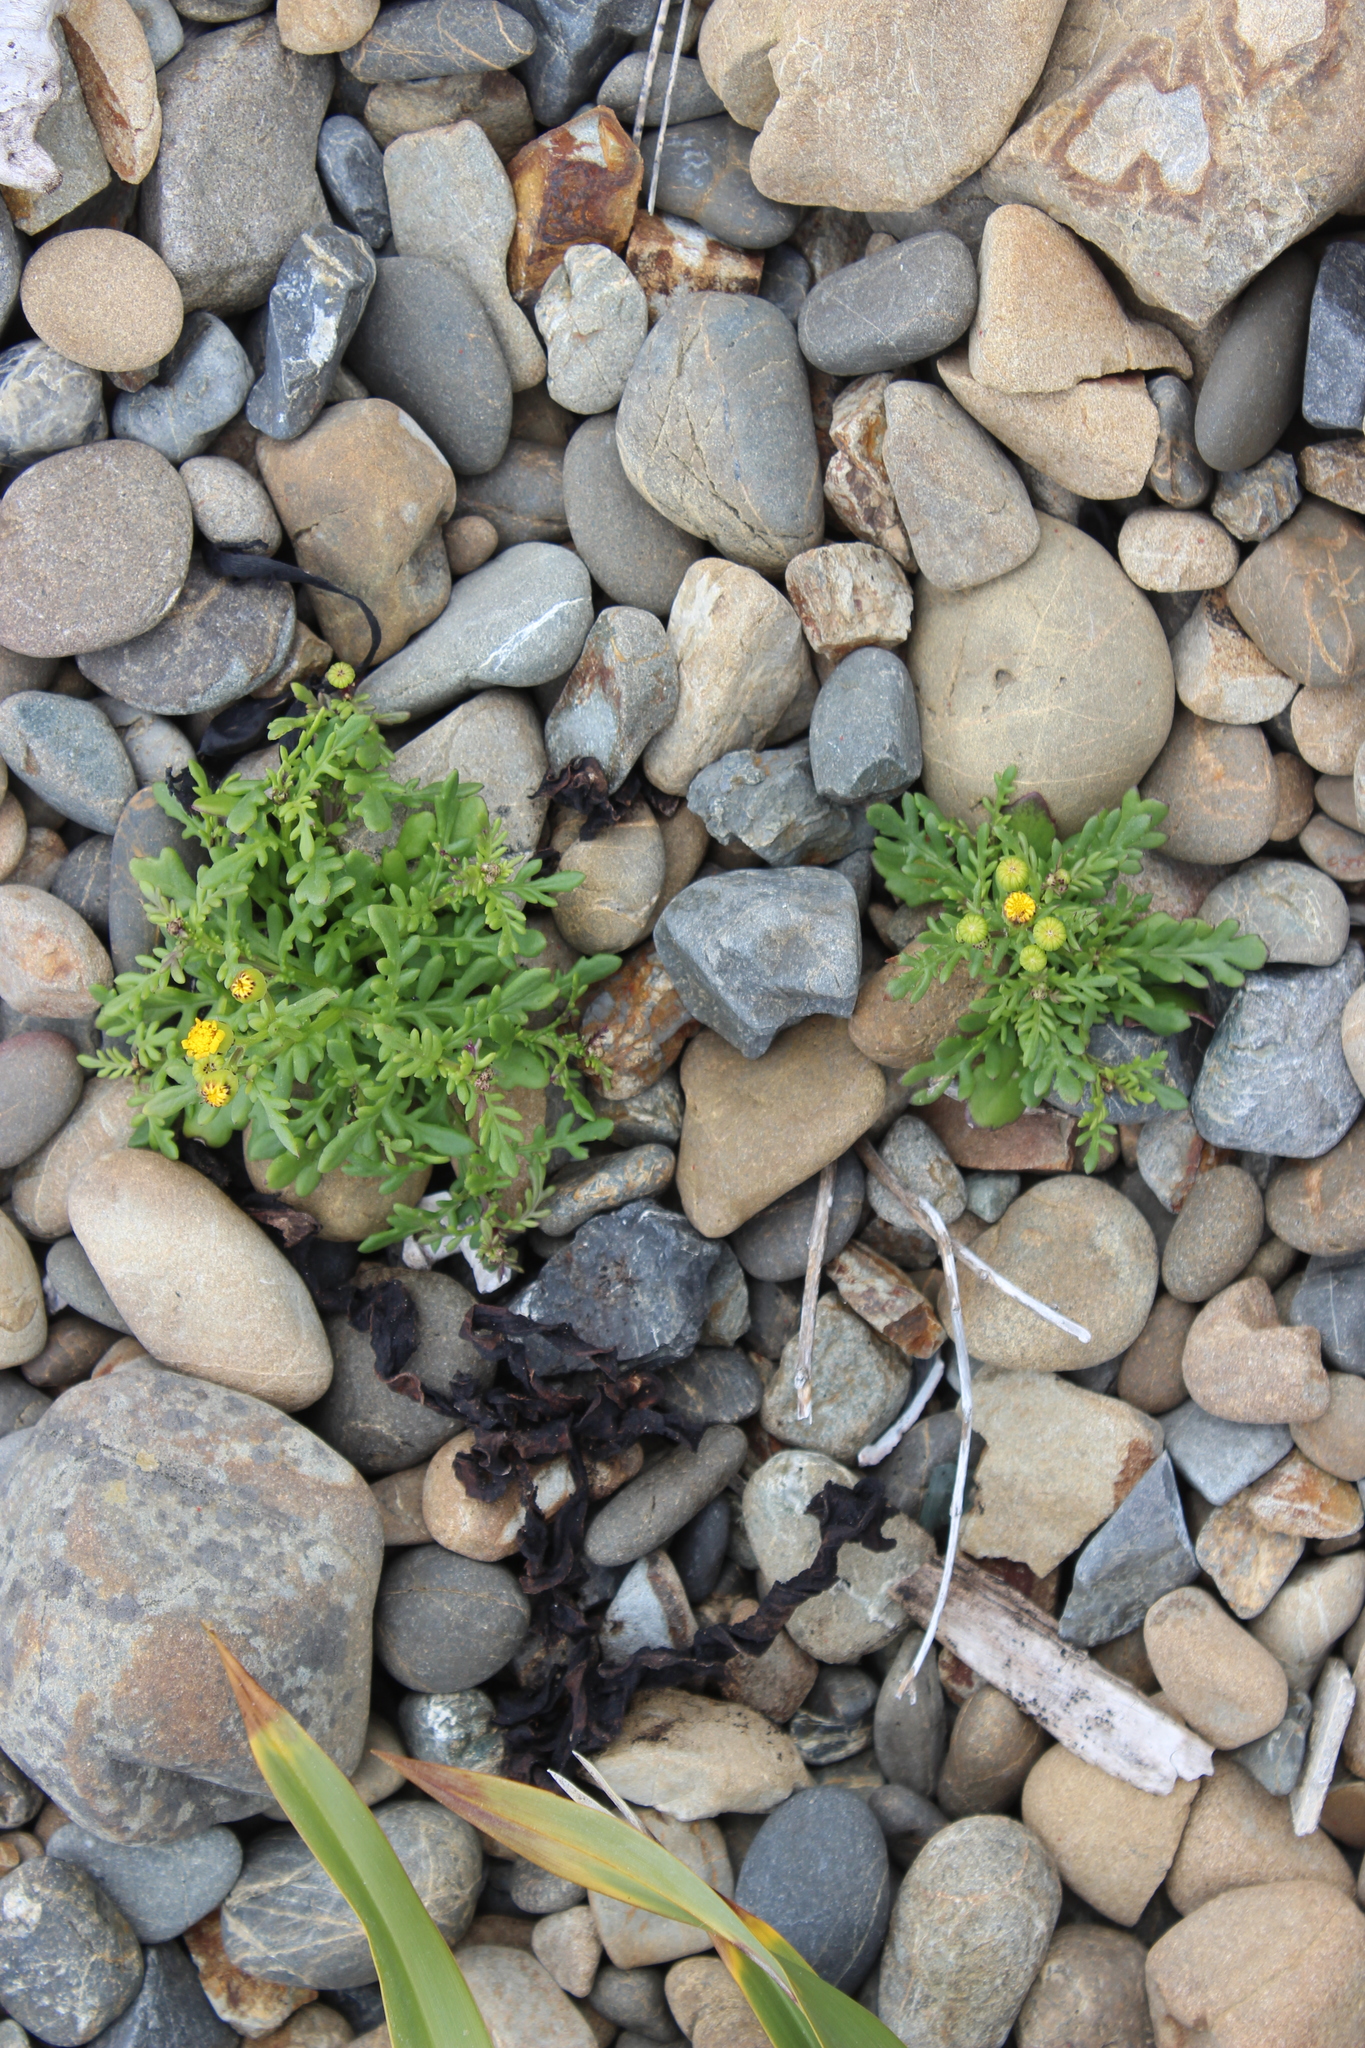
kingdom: Plantae
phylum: Tracheophyta
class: Magnoliopsida
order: Asterales
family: Asteraceae
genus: Senecio
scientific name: Senecio lautus
